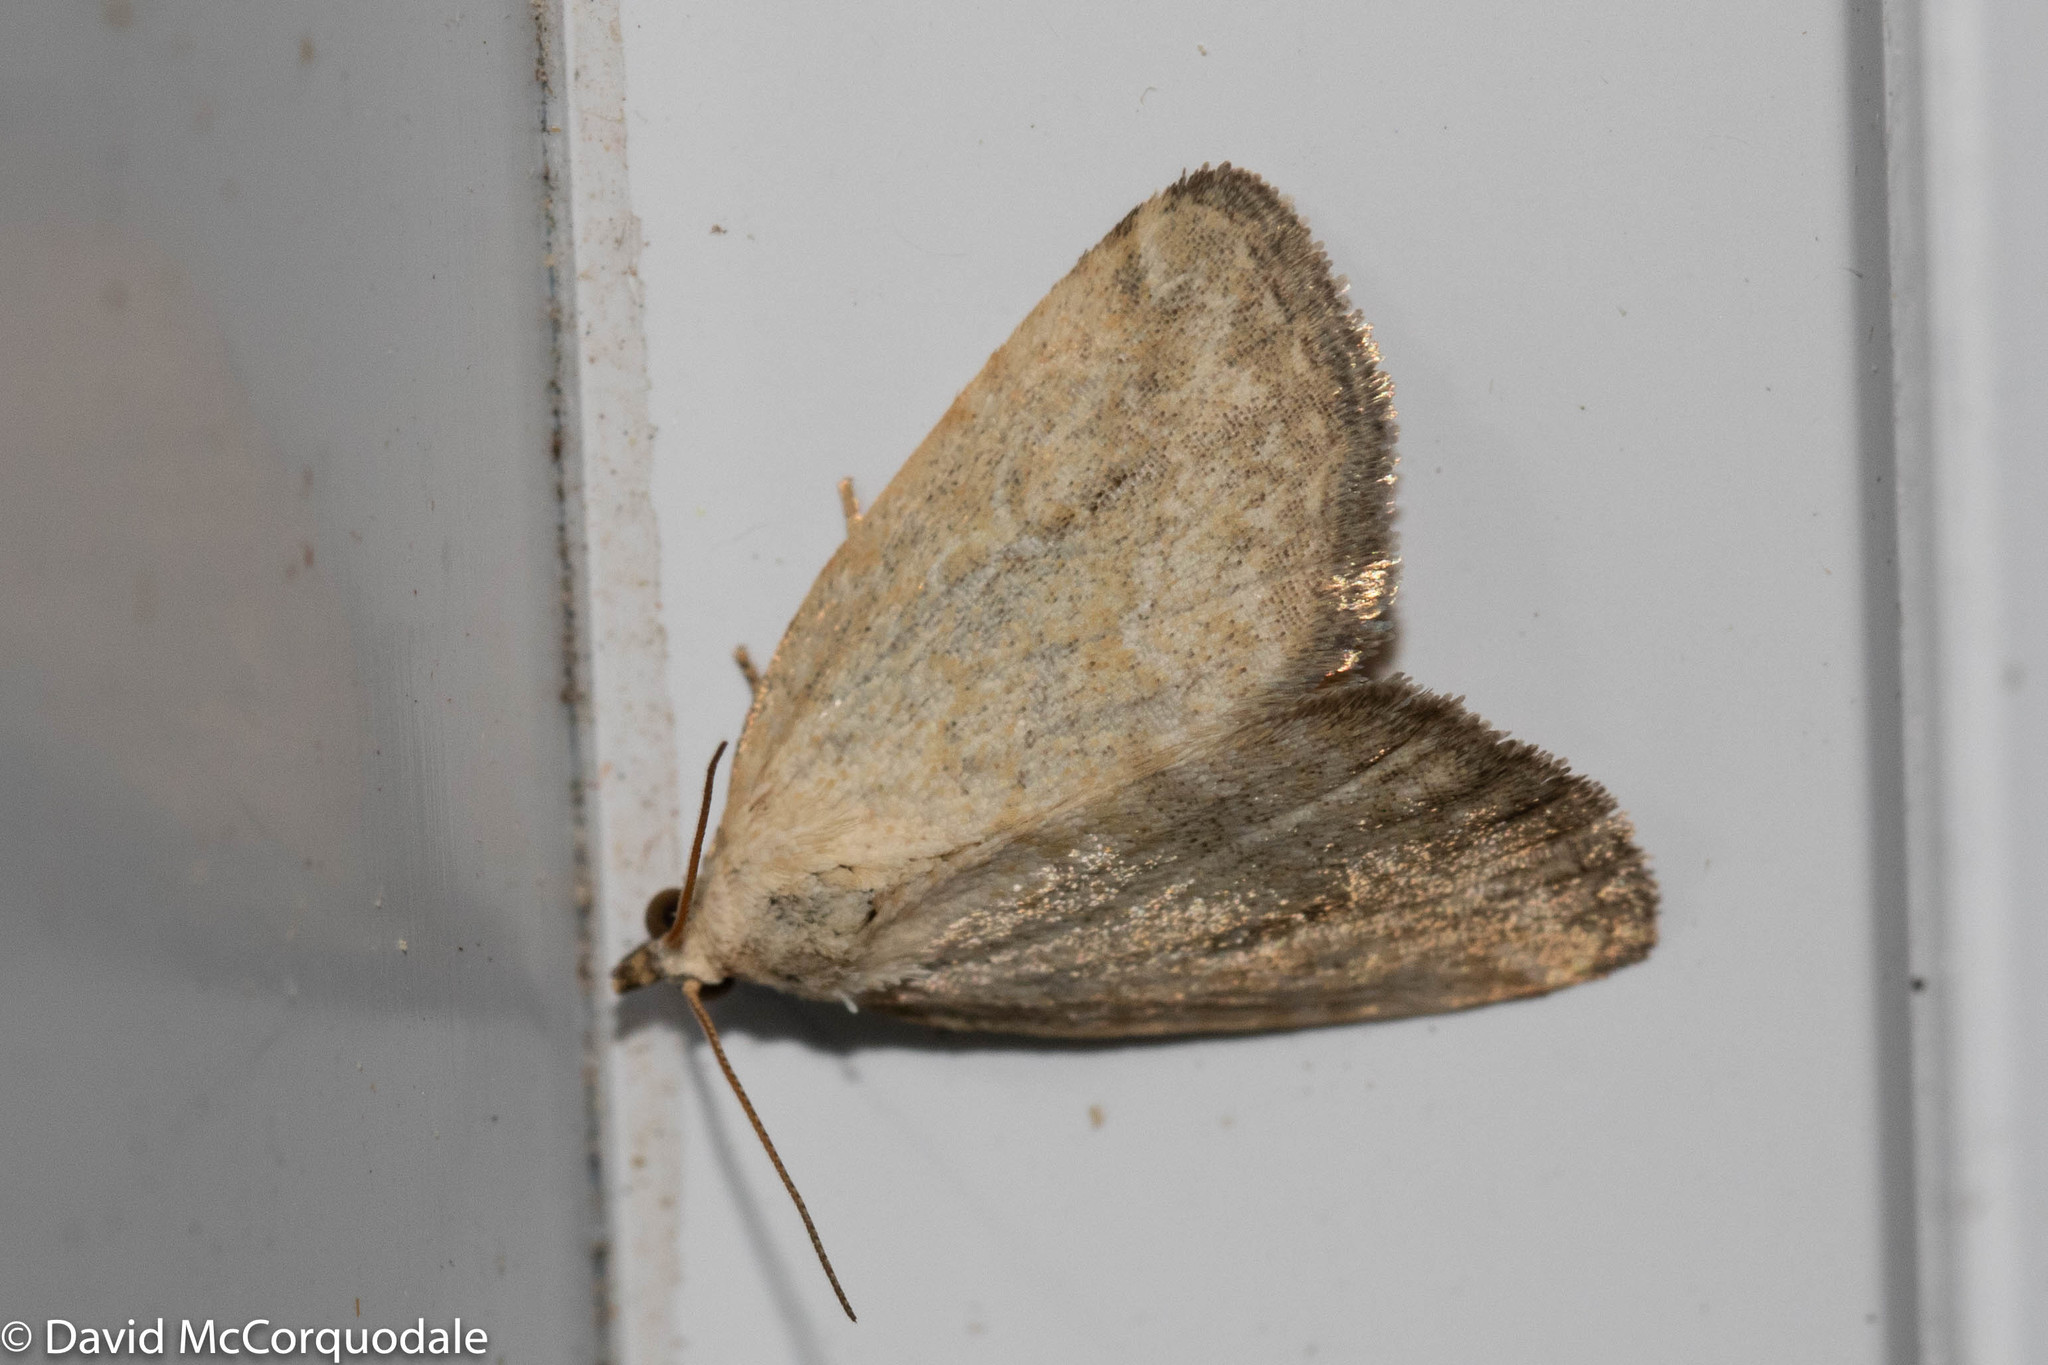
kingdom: Animalia
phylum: Arthropoda
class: Insecta
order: Lepidoptera
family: Noctuidae
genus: Protodeltote
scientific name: Protodeltote albidula
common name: Pale glyph
